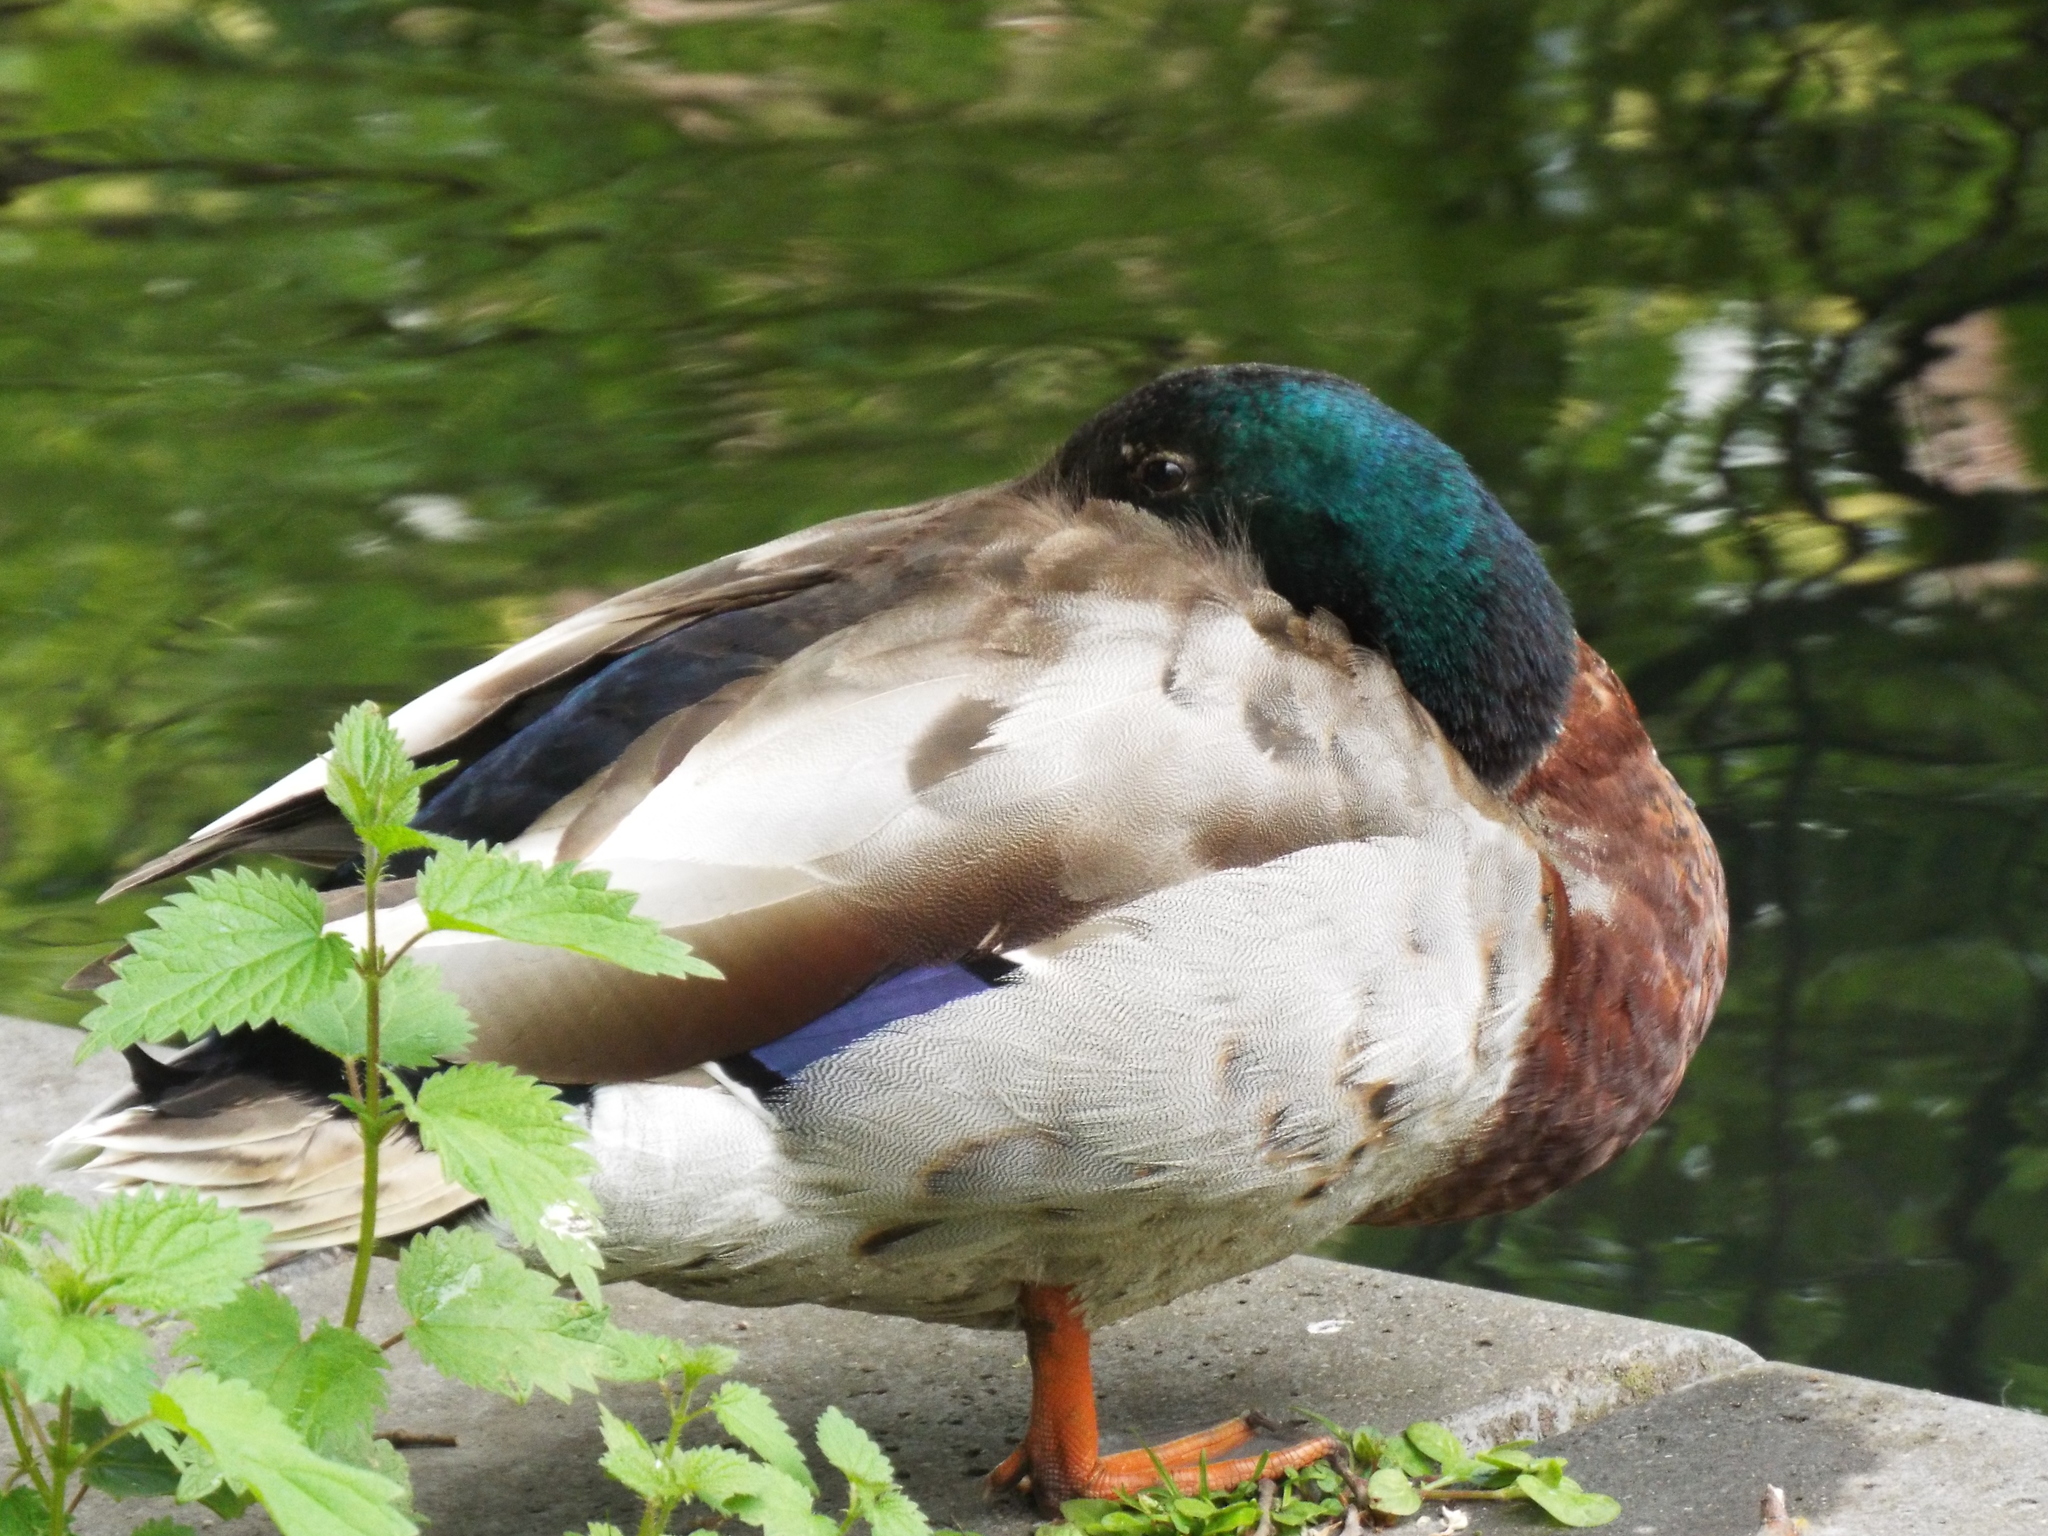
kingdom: Animalia
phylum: Chordata
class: Aves
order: Anseriformes
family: Anatidae
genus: Anas
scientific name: Anas platyrhynchos
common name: Mallard
